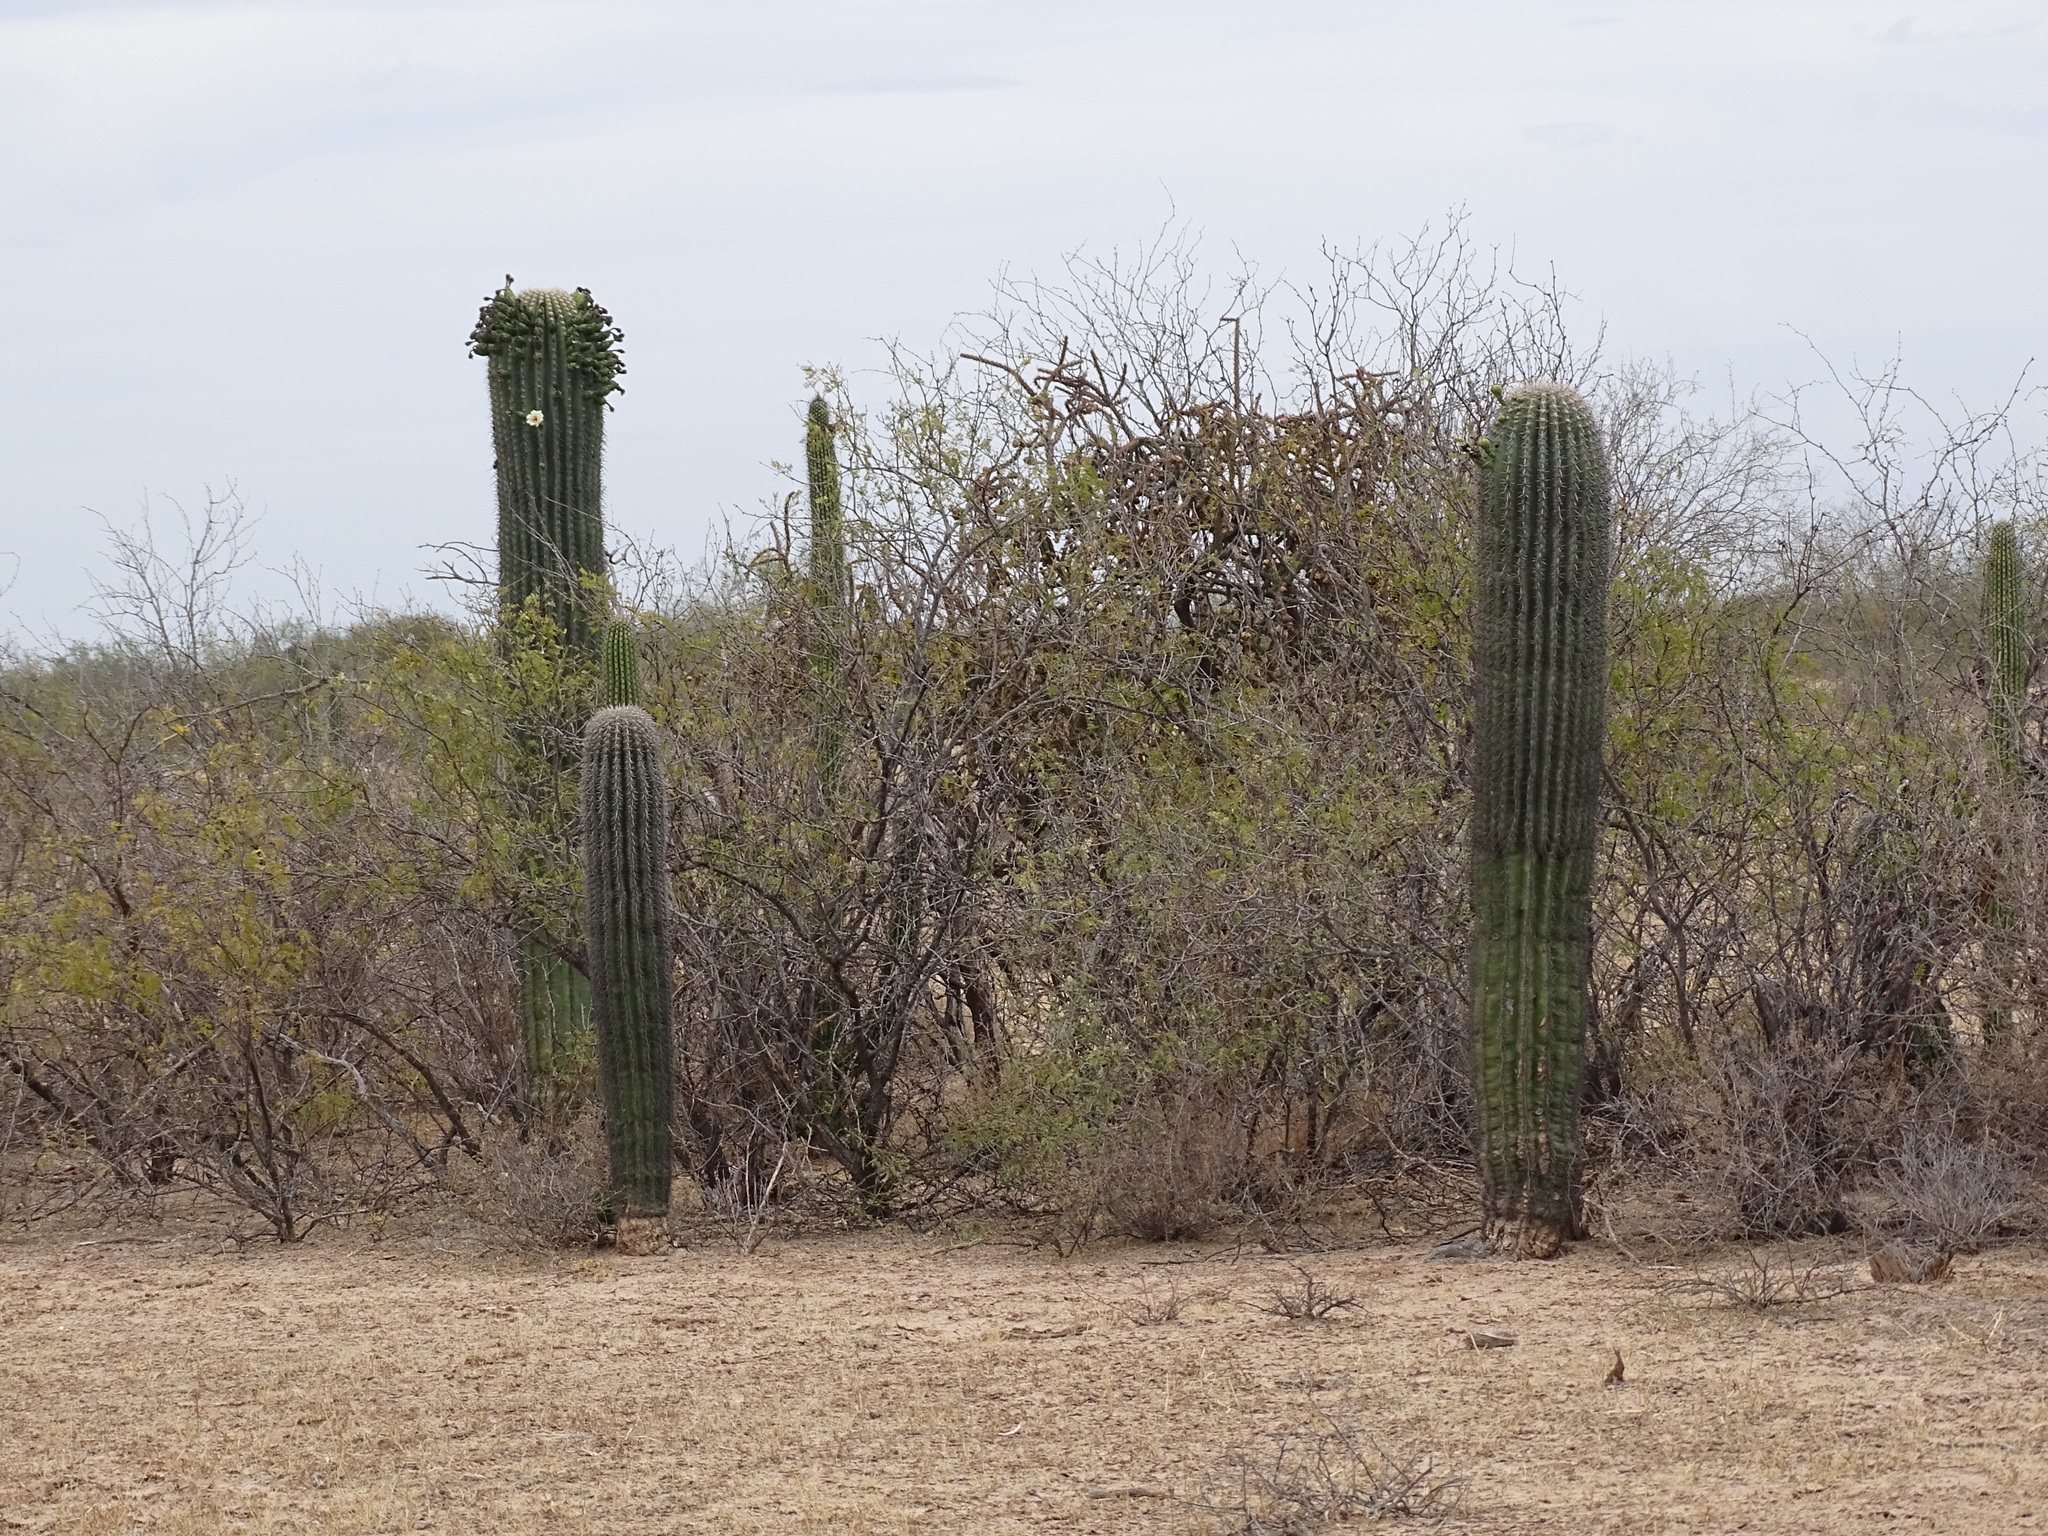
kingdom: Plantae
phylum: Tracheophyta
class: Magnoliopsida
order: Caryophyllales
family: Cactaceae
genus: Carnegiea
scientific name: Carnegiea gigantea
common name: Saguaro
